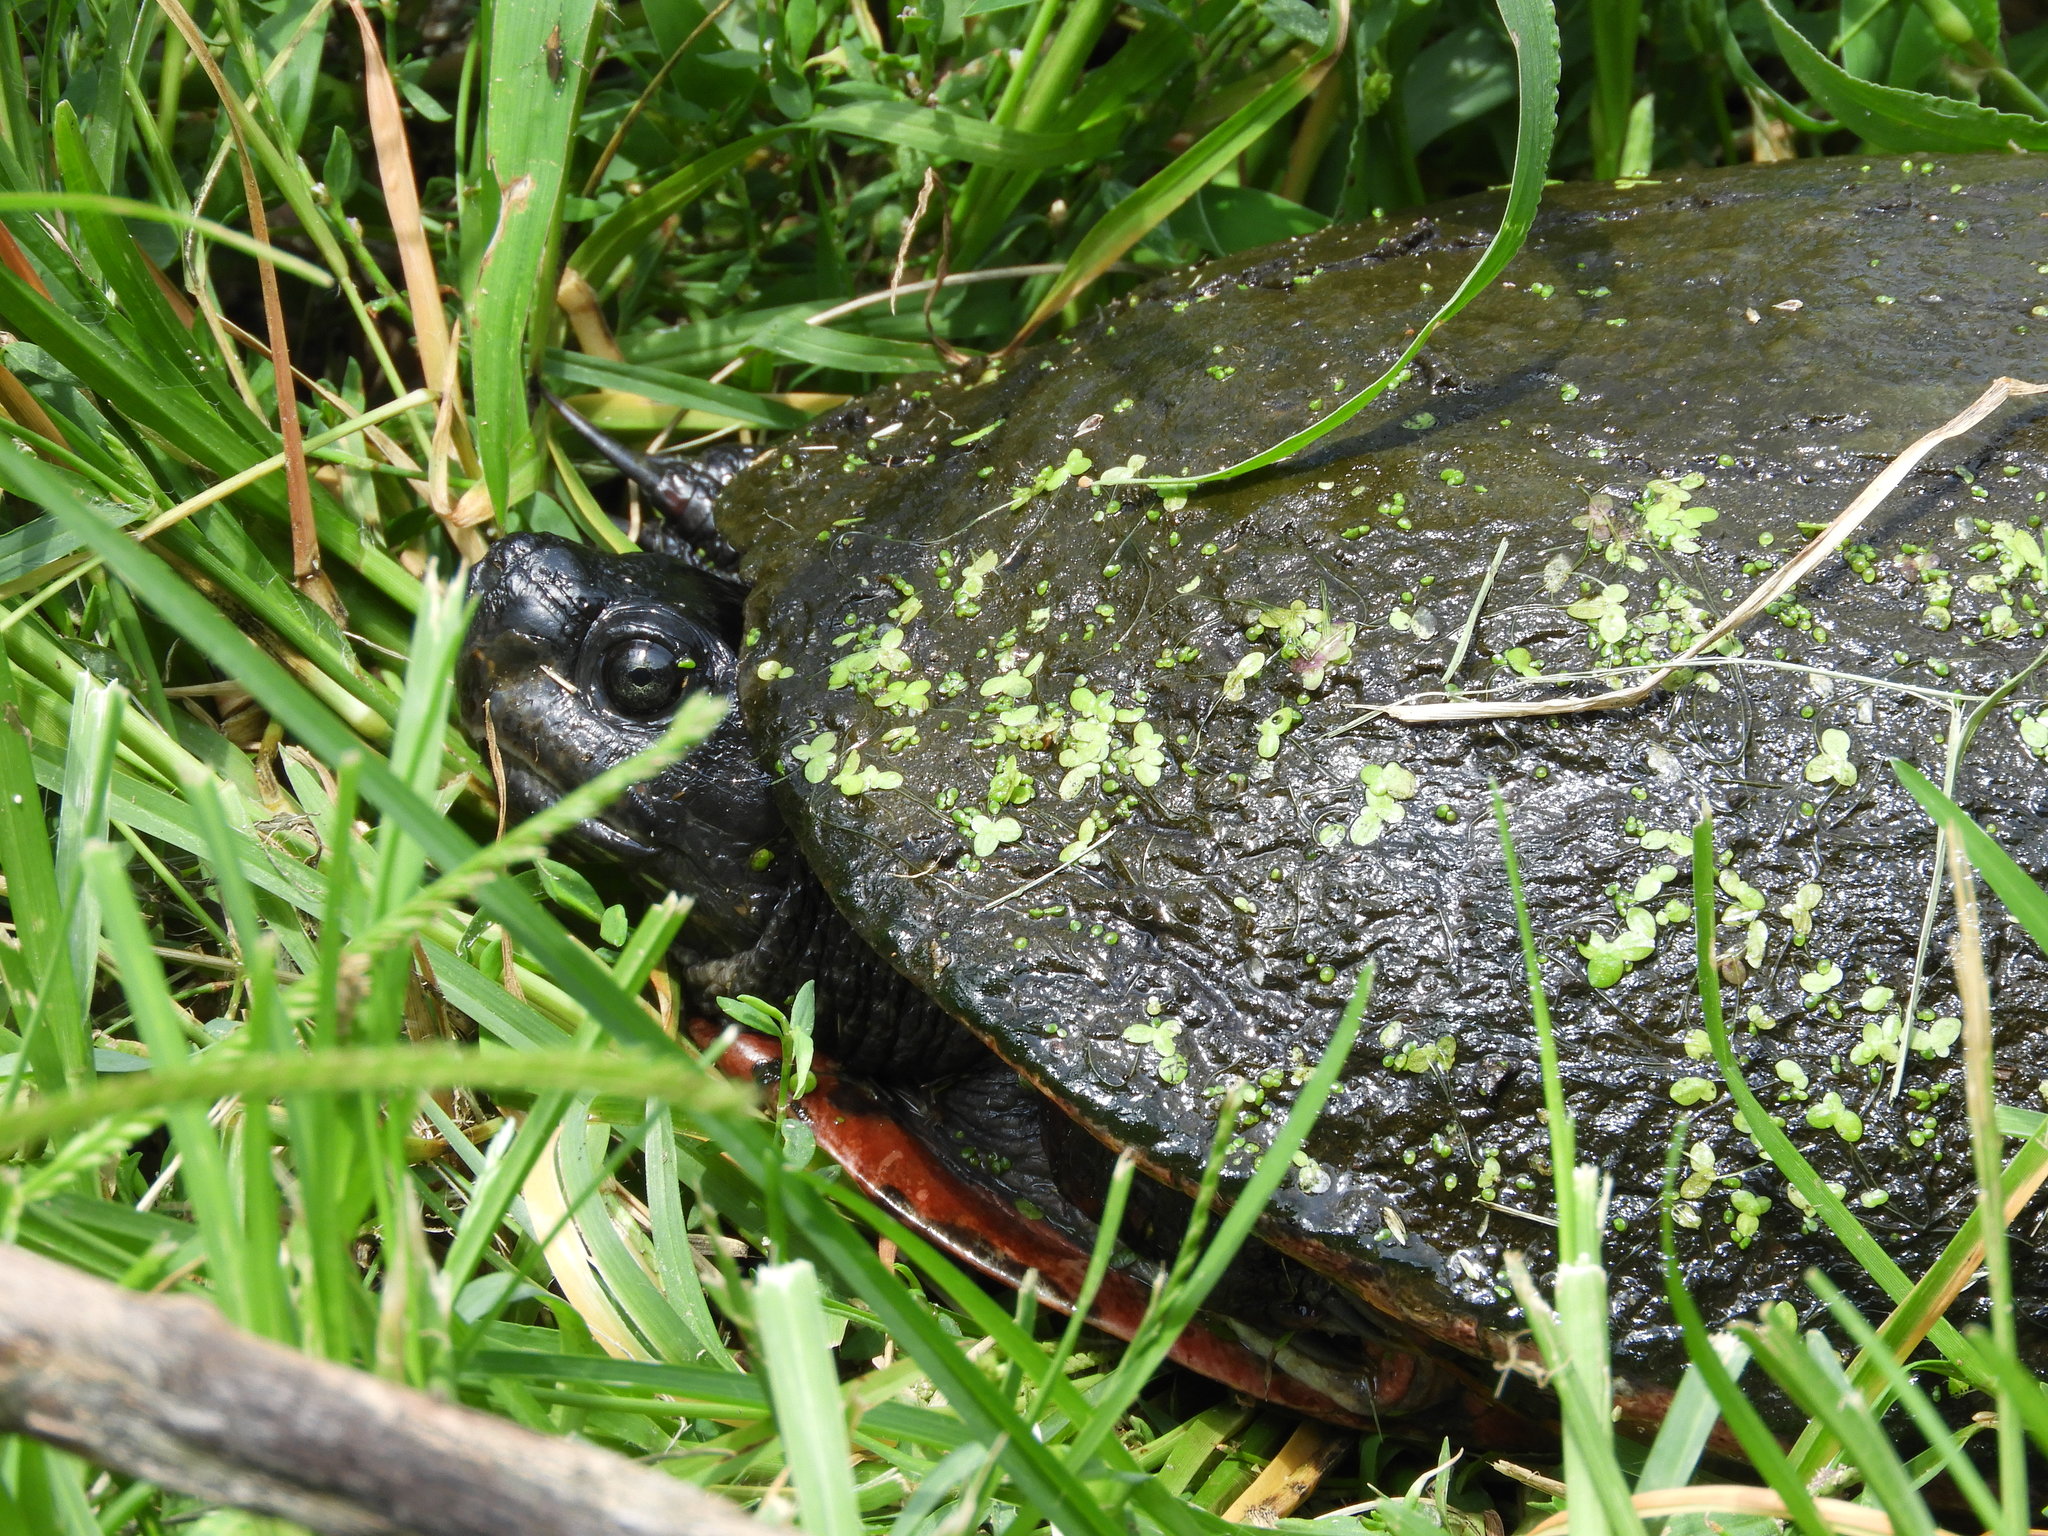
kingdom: Animalia
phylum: Chordata
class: Testudines
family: Emydidae
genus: Pseudemys
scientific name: Pseudemys rubriventris
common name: American red-bellied turtle
